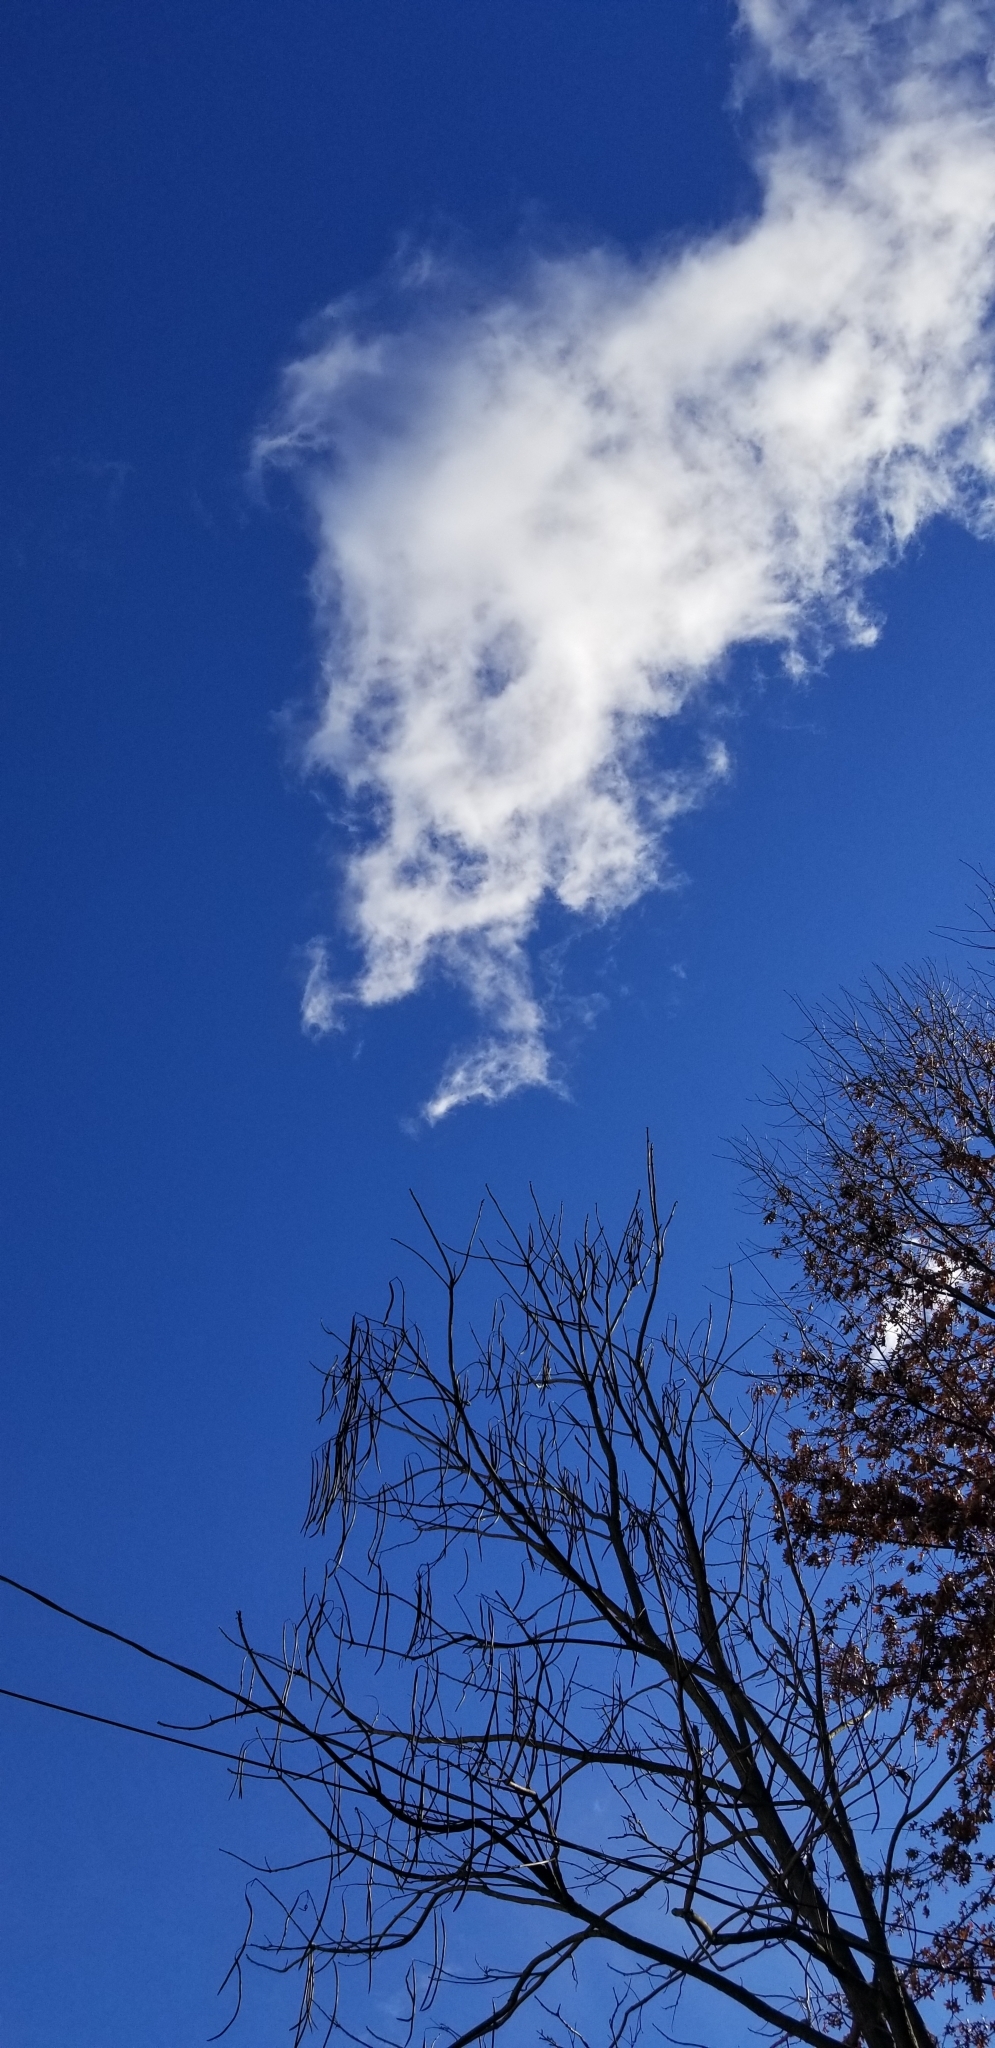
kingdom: Plantae
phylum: Tracheophyta
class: Magnoliopsida
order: Lamiales
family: Bignoniaceae
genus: Catalpa
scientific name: Catalpa
